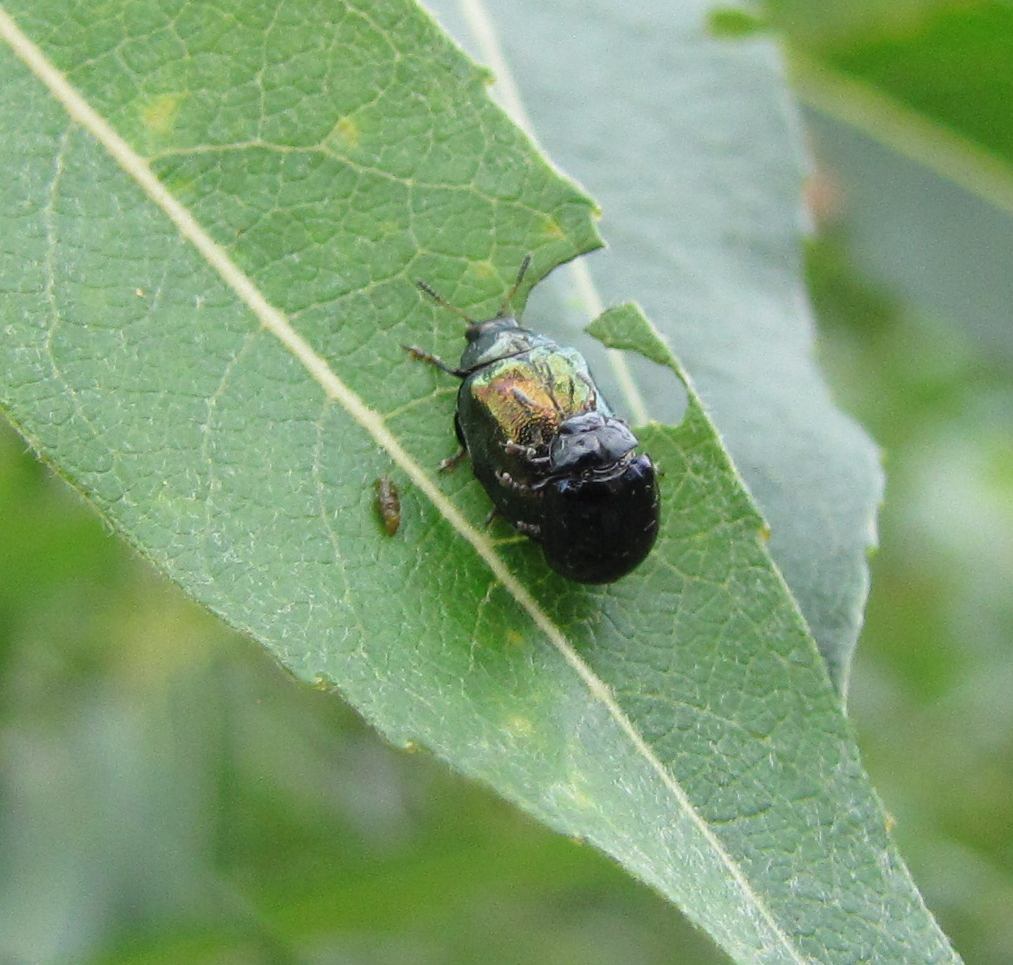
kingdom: Animalia
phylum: Arthropoda
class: Insecta
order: Coleoptera
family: Chrysomelidae
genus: Plagiodera
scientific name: Plagiodera versicolora
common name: Imported willow leaf beetle
